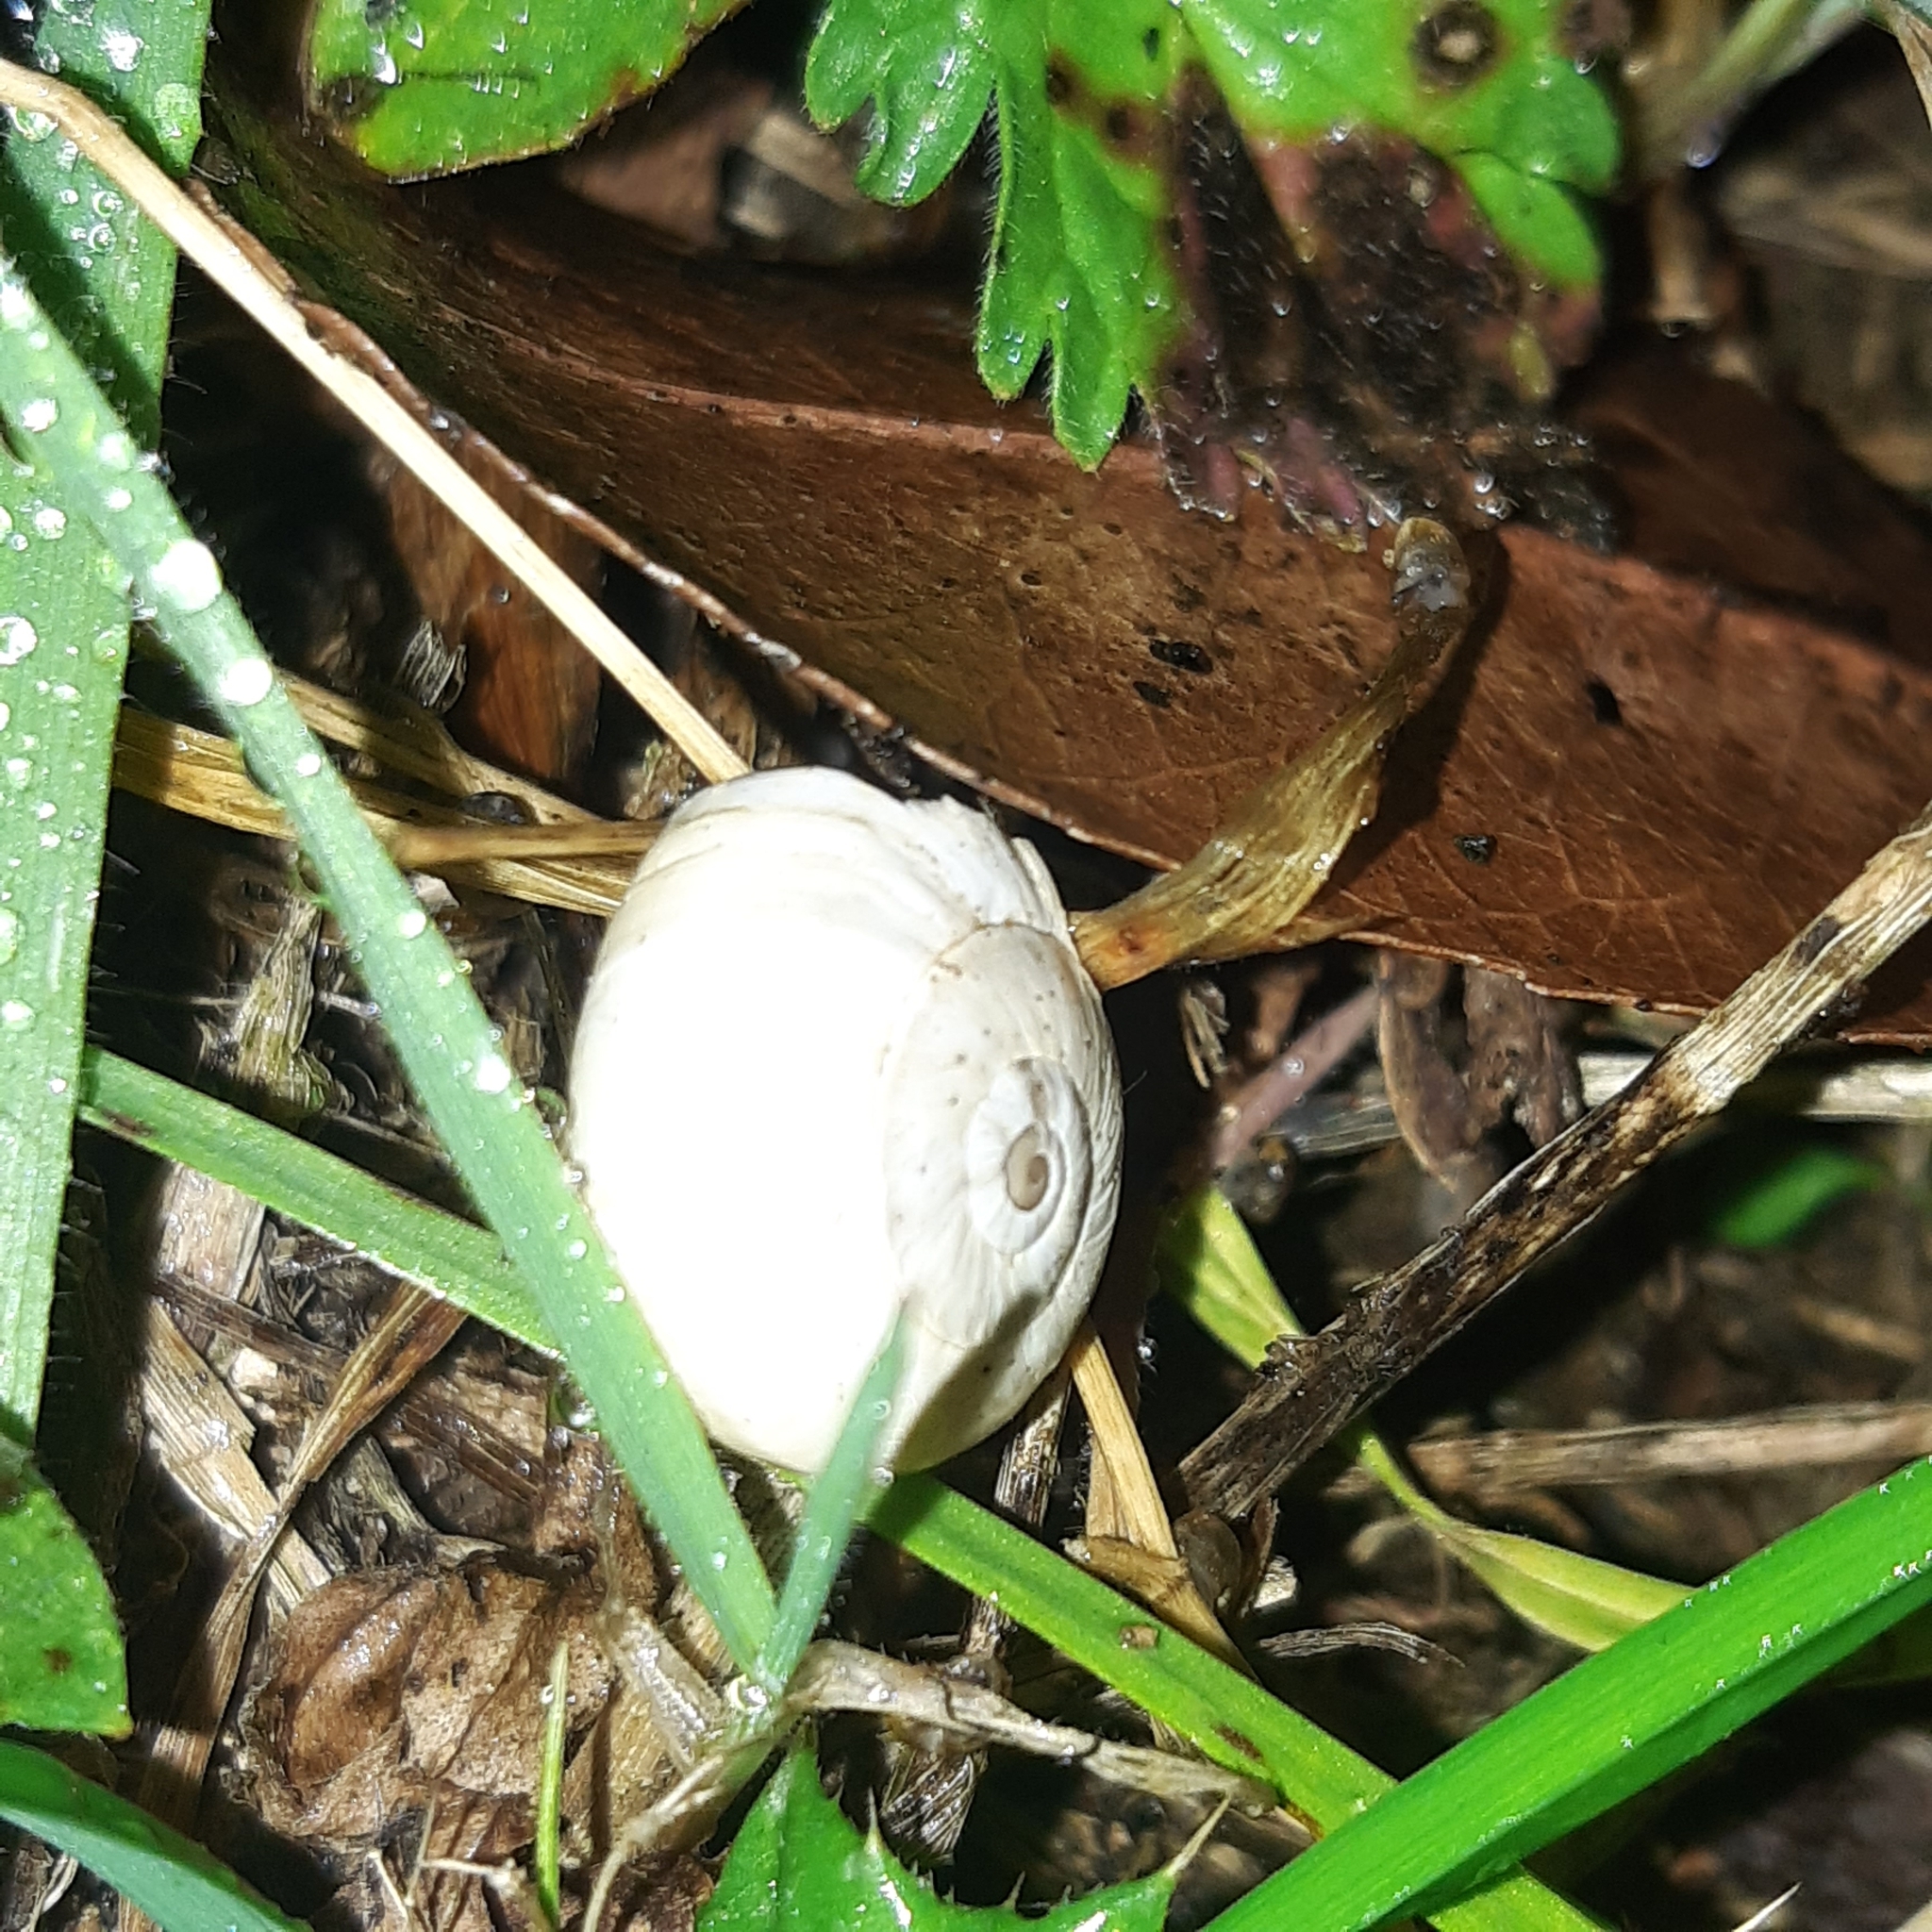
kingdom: Animalia
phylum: Mollusca
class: Gastropoda
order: Stylommatophora
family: Helicidae
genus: Theba
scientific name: Theba pisana
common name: White snail
